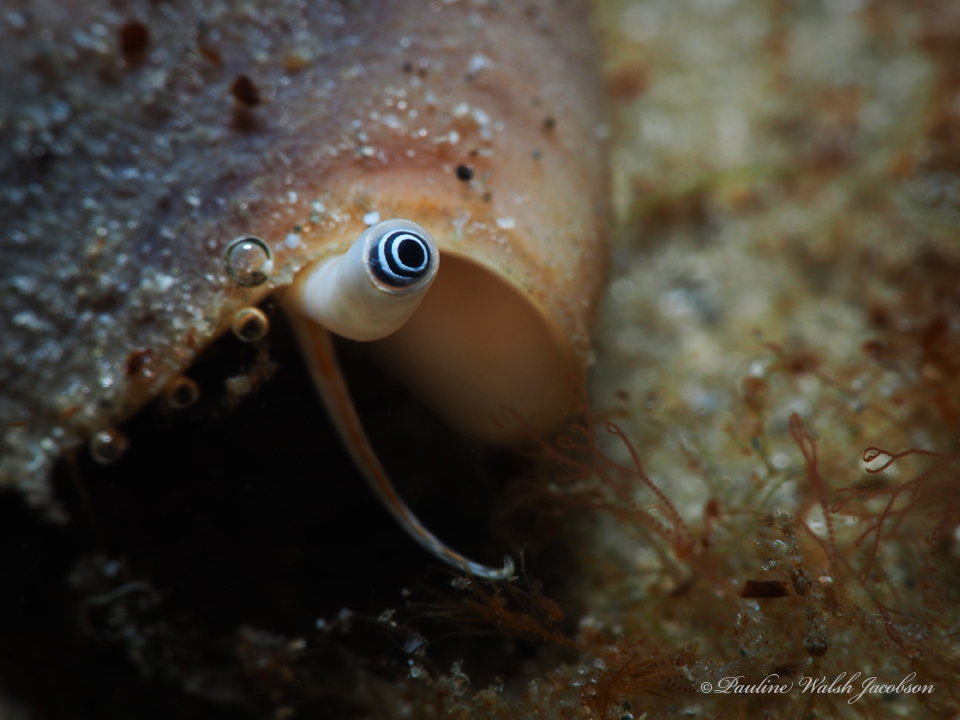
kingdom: Animalia
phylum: Mollusca
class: Gastropoda
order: Littorinimorpha
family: Strombidae
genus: Strombus
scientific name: Strombus alatus
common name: Florida fighting conch
